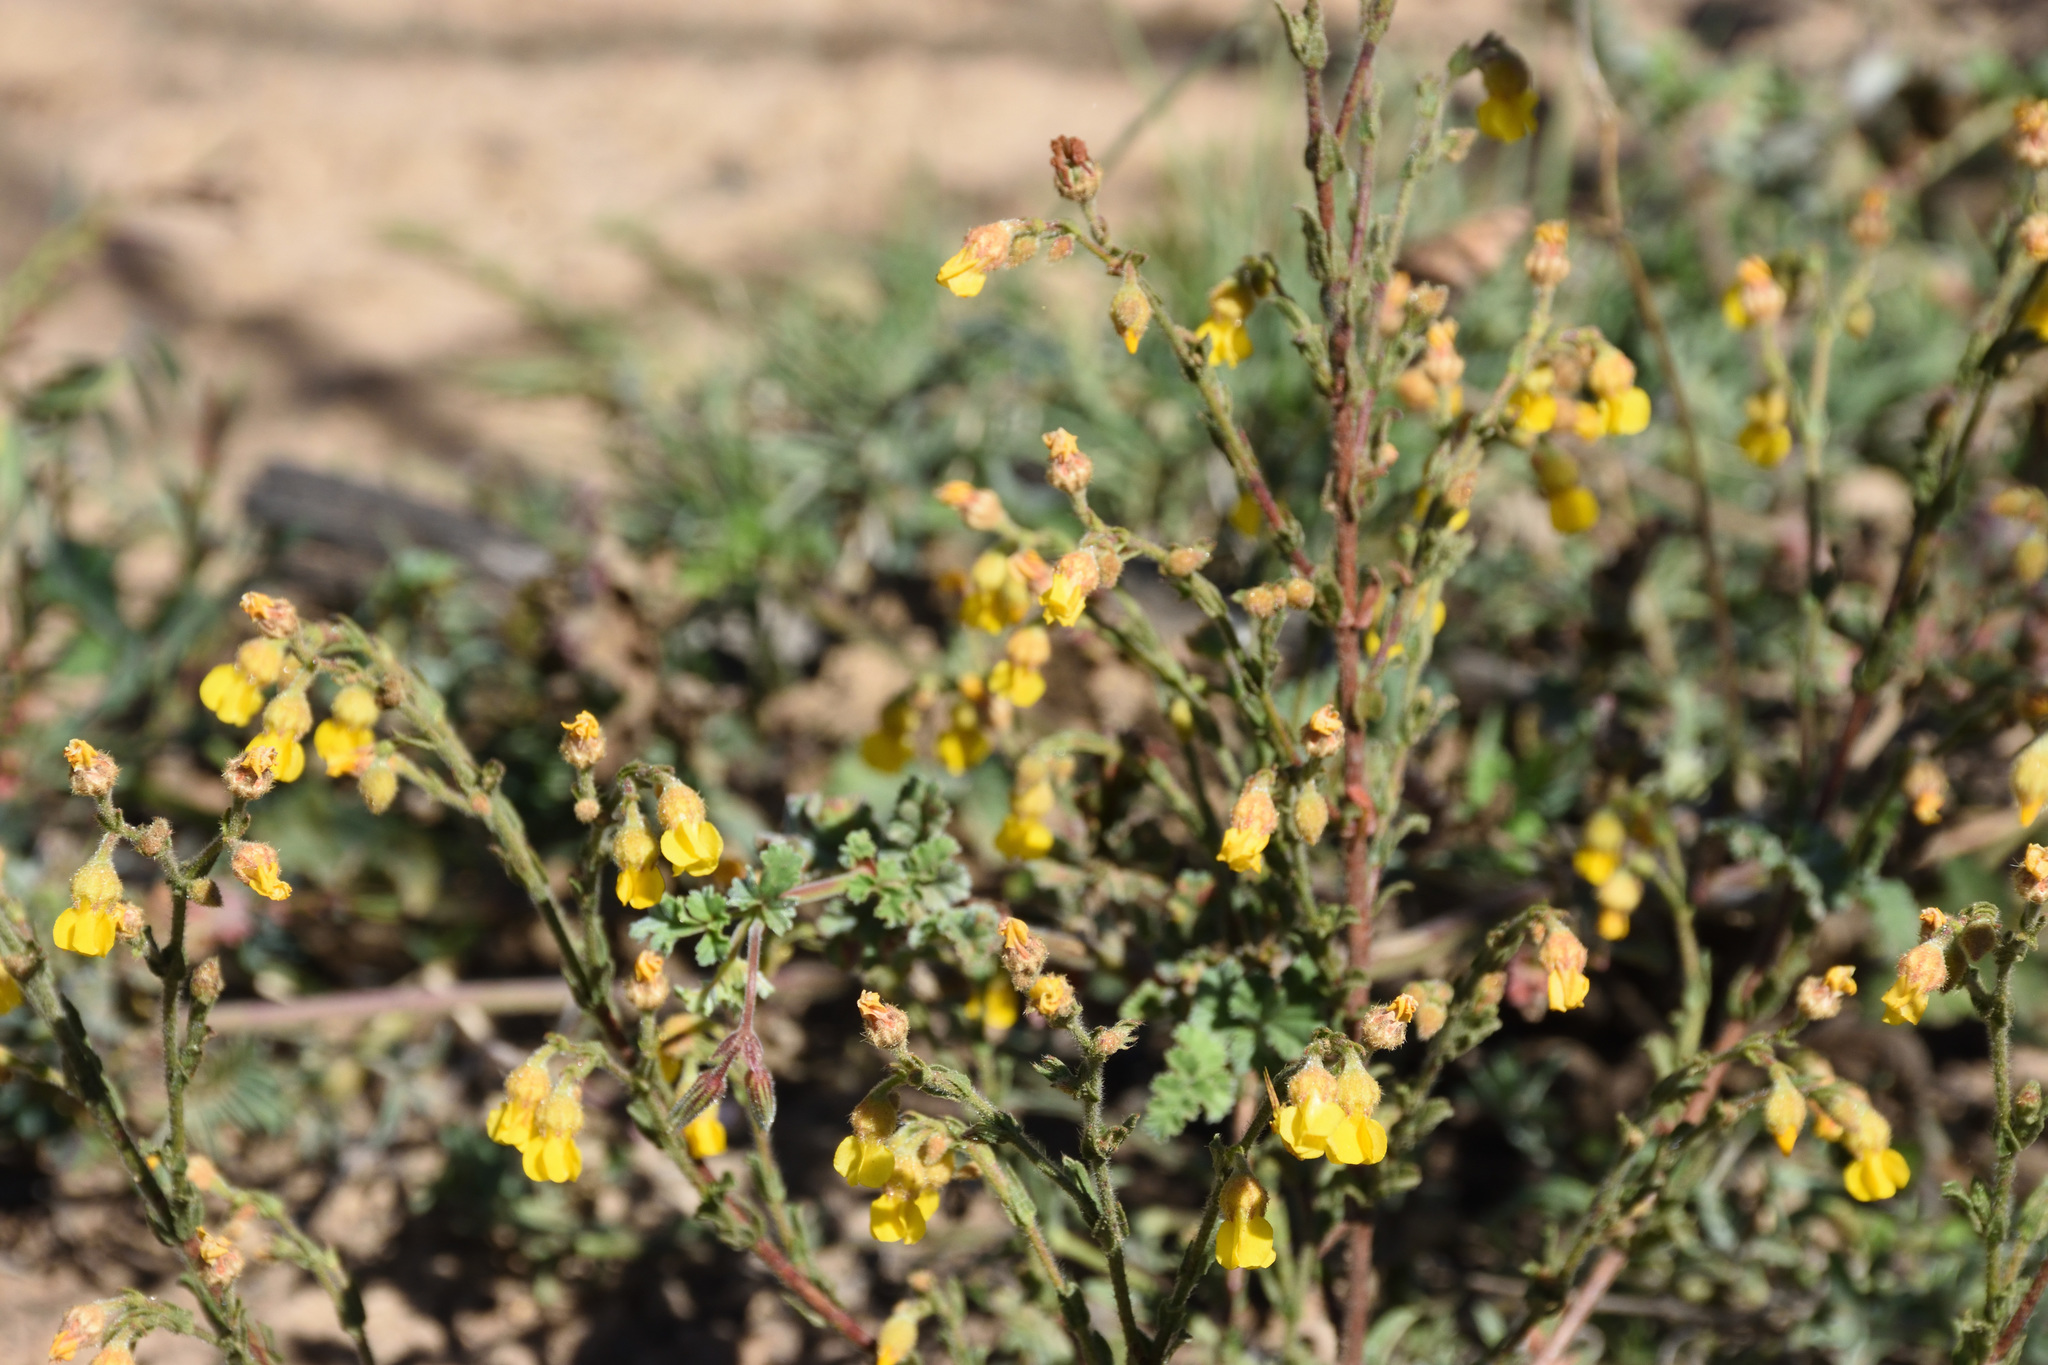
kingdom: Plantae
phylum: Tracheophyta
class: Magnoliopsida
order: Malvales
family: Malvaceae
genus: Hermannia
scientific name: Hermannia stipulacea
